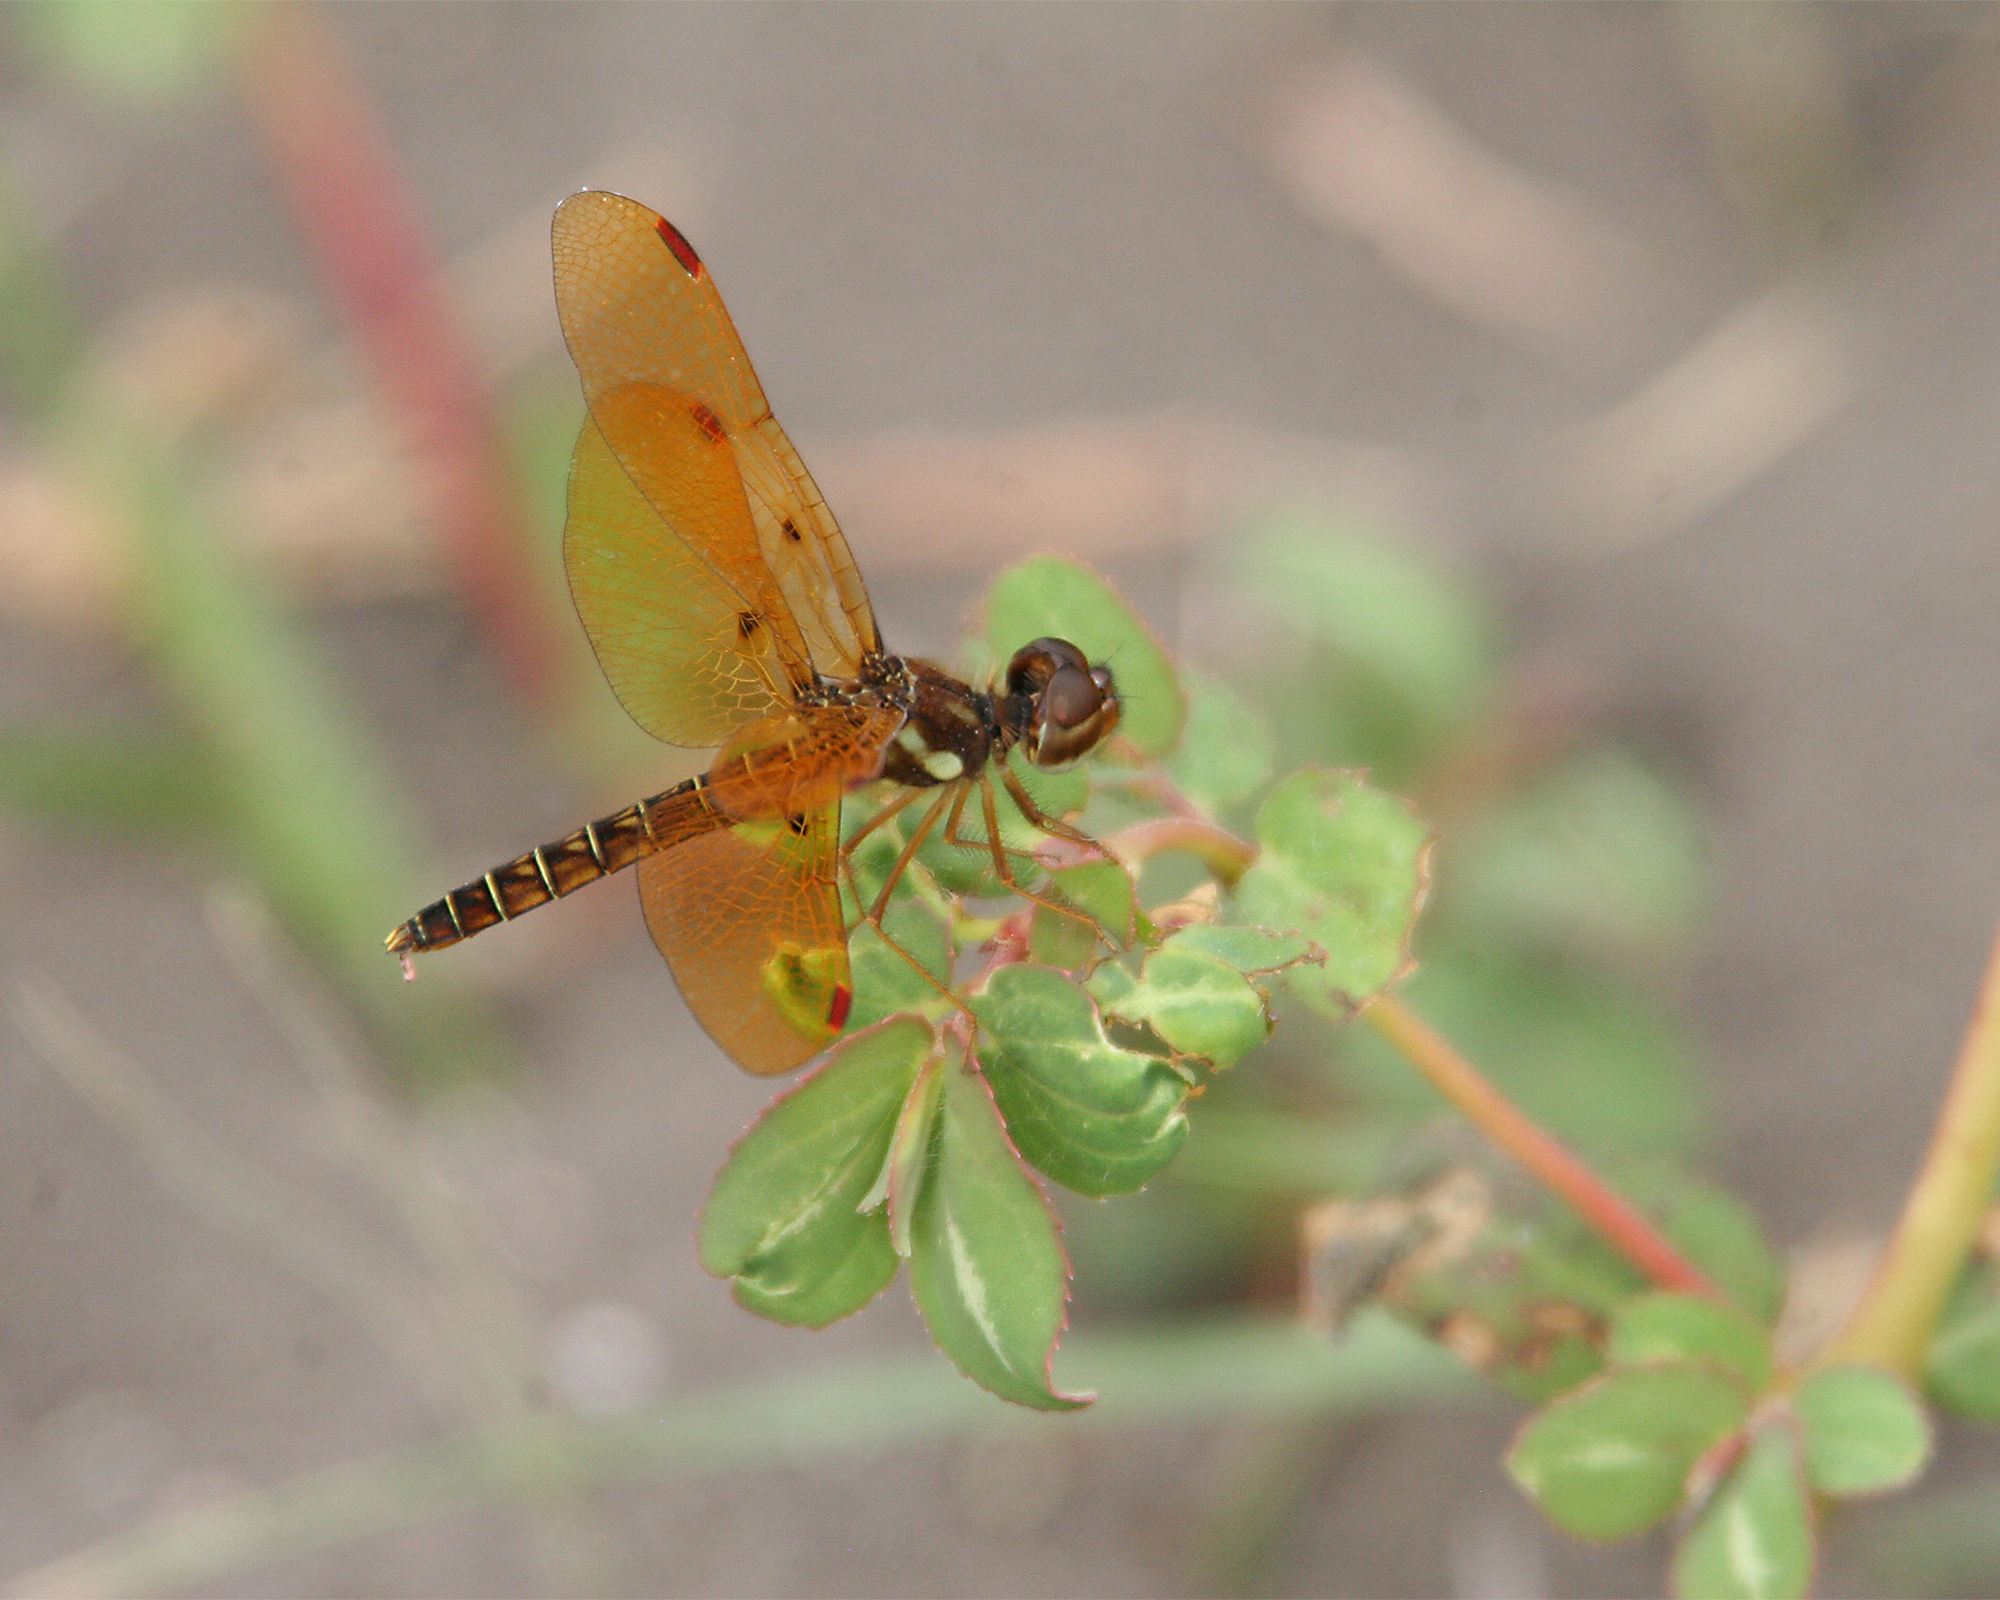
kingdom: Animalia
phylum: Arthropoda
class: Insecta
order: Odonata
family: Libellulidae
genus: Perithemis
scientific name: Perithemis tenera
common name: Eastern amberwing
